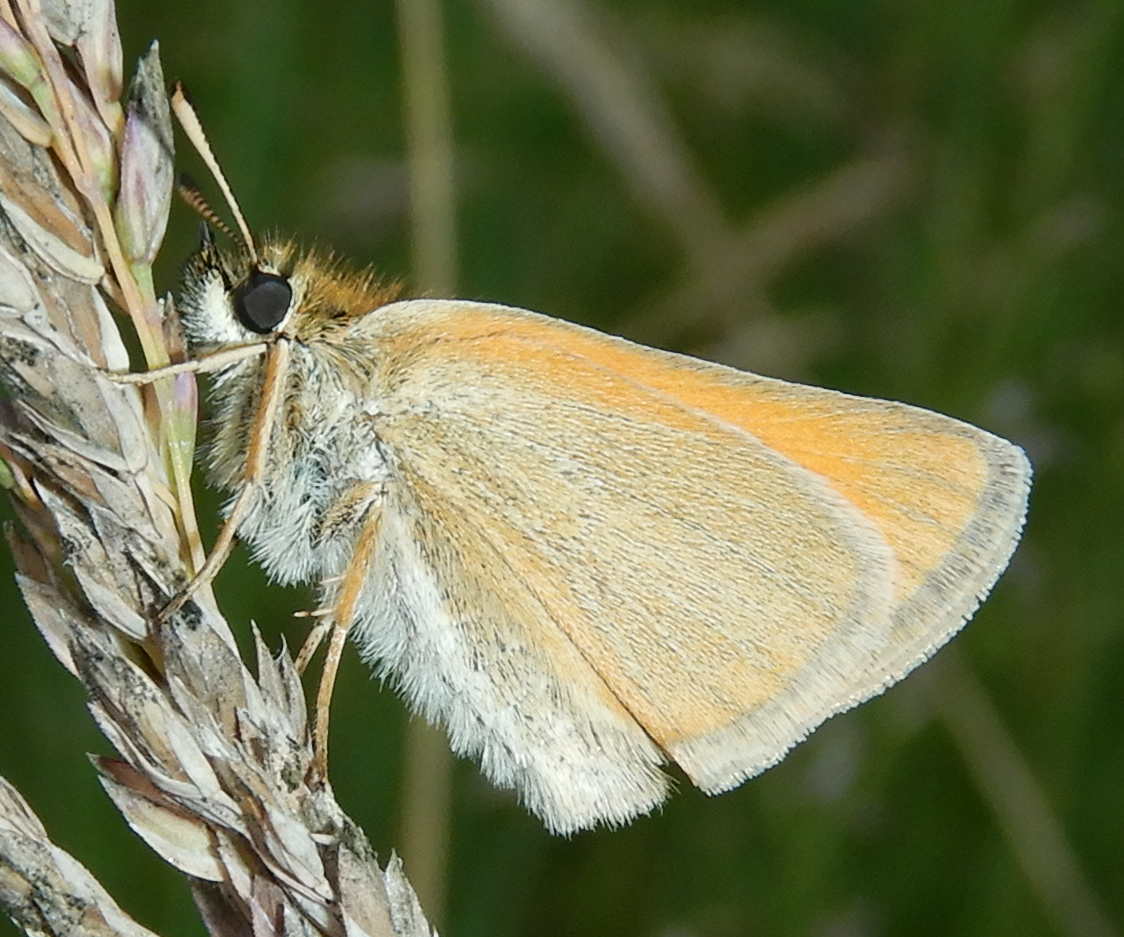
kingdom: Animalia
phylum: Arthropoda
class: Insecta
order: Lepidoptera
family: Hesperiidae
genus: Thymelicus
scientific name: Thymelicus lineola
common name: Essex skipper
